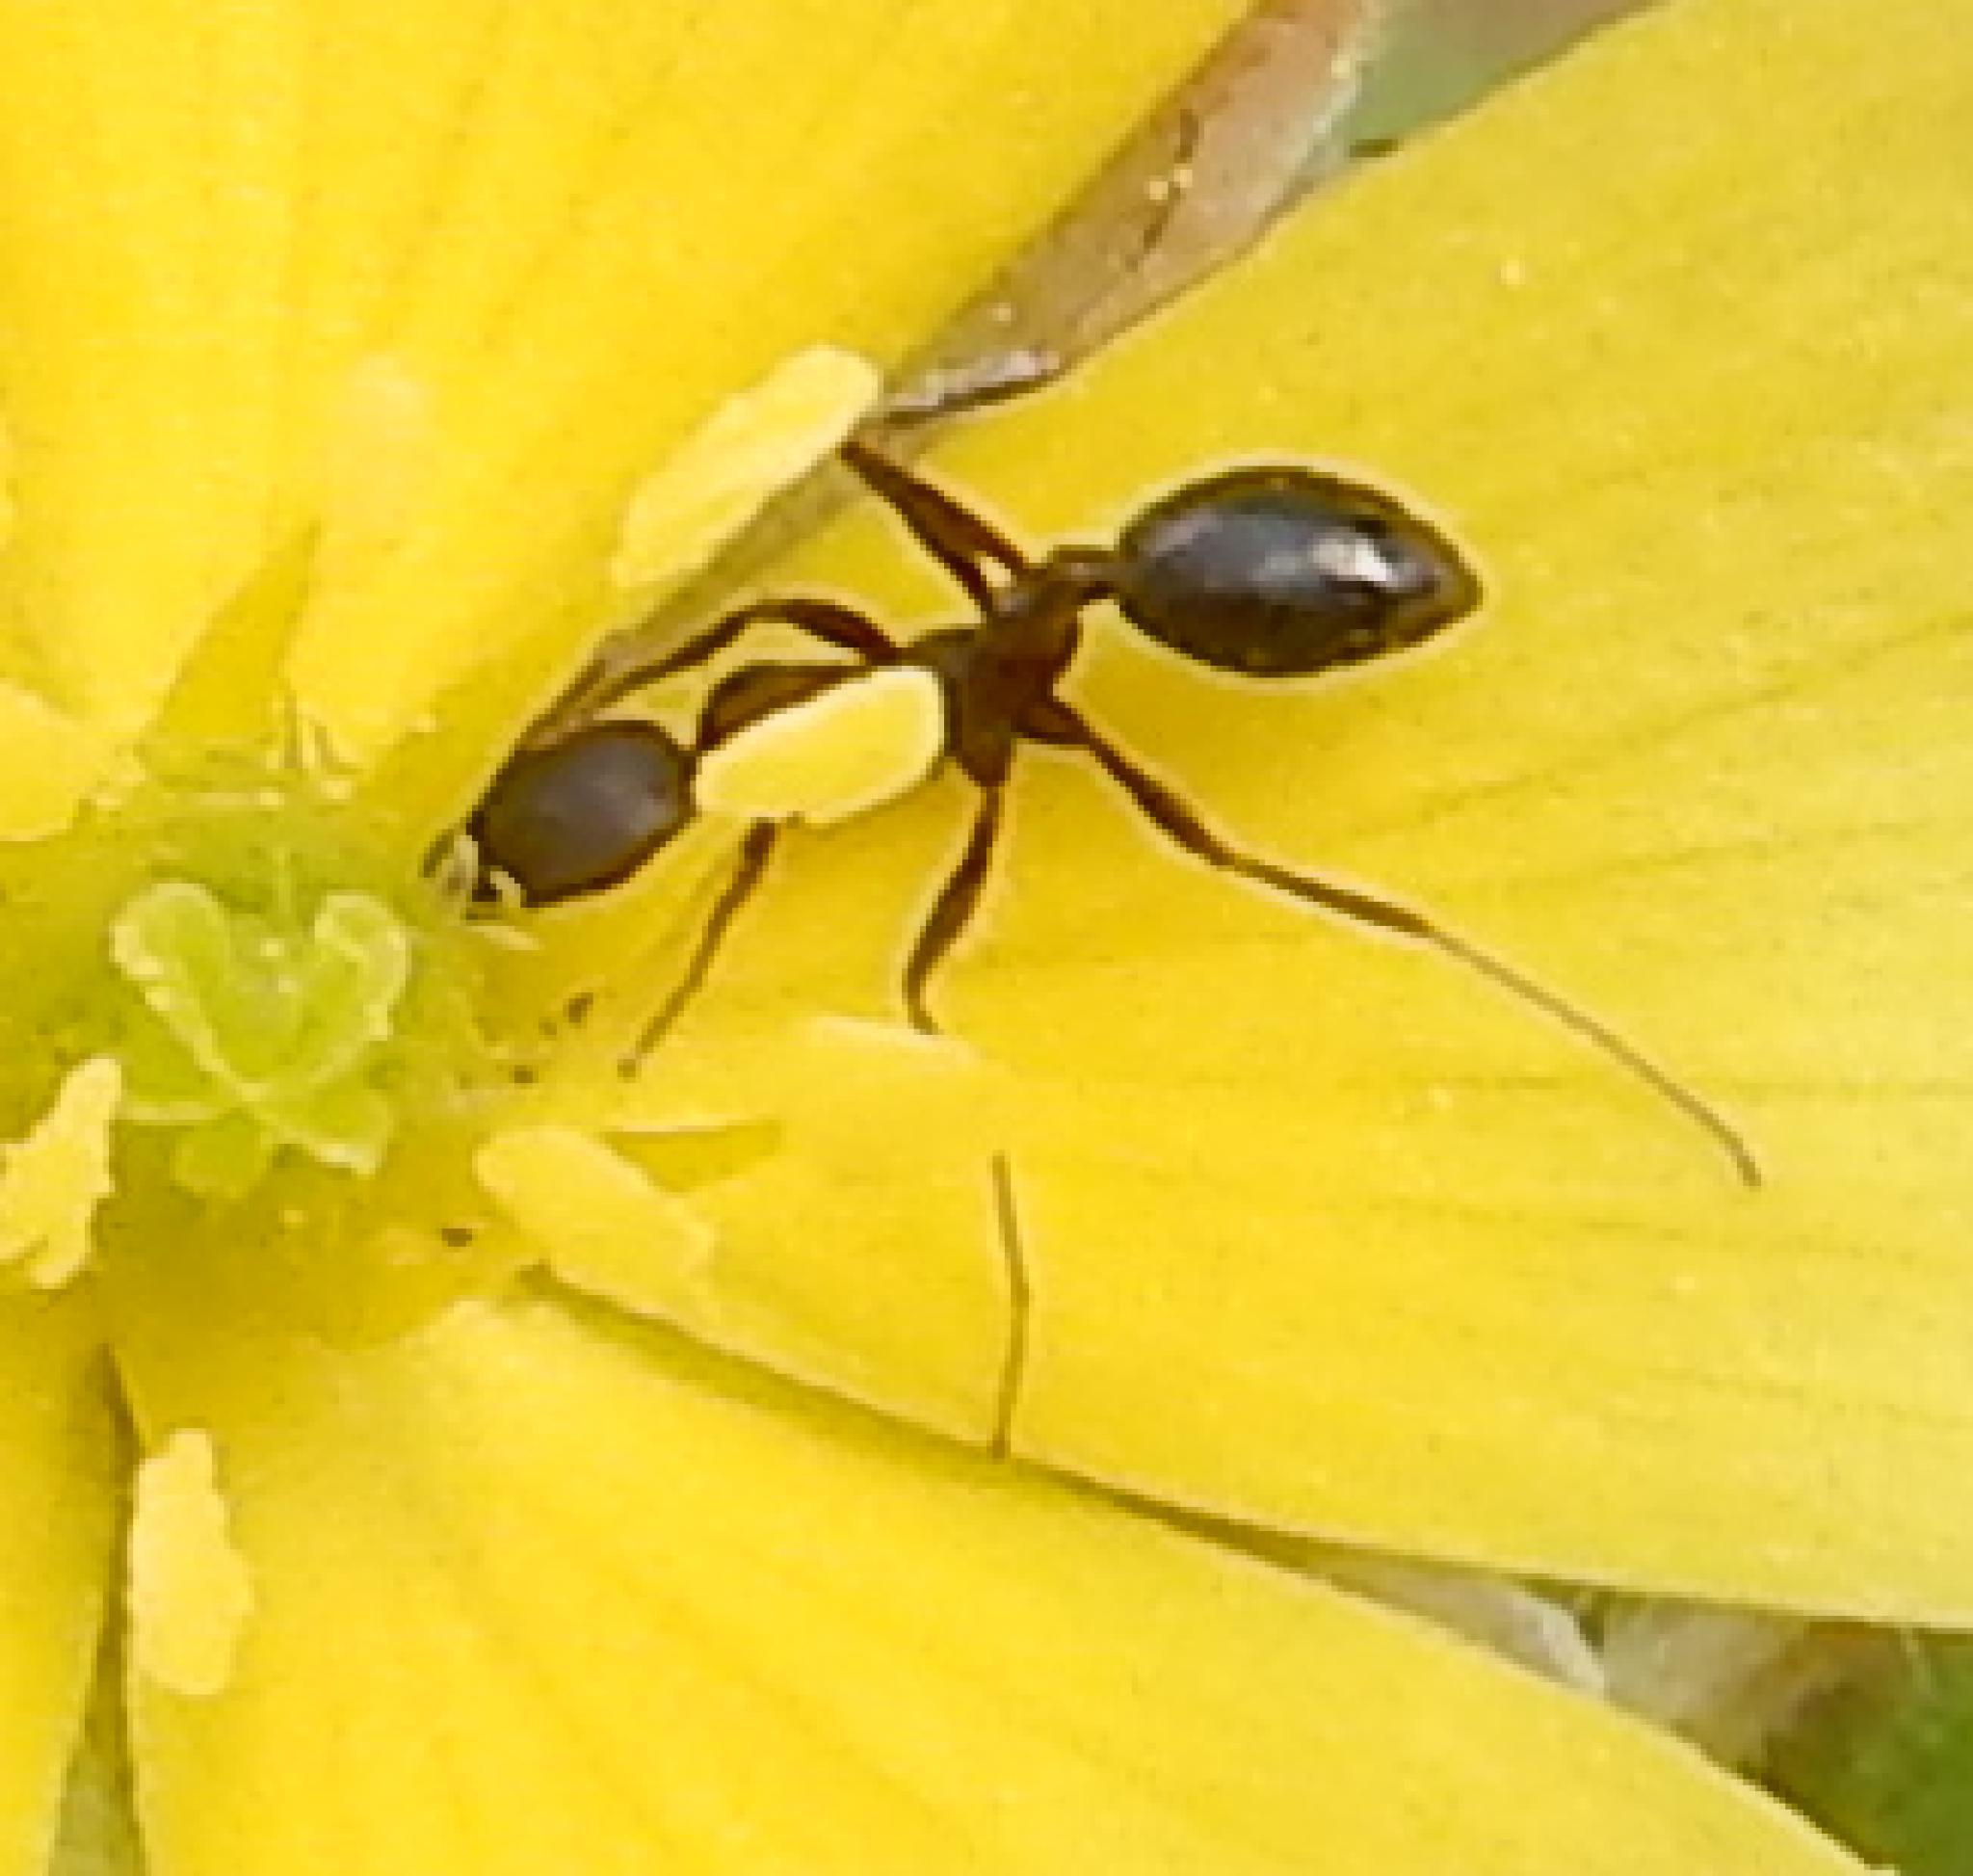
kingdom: Animalia
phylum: Arthropoda
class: Insecta
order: Hymenoptera
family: Formicidae
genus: Monomorium
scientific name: Monomorium junodi
